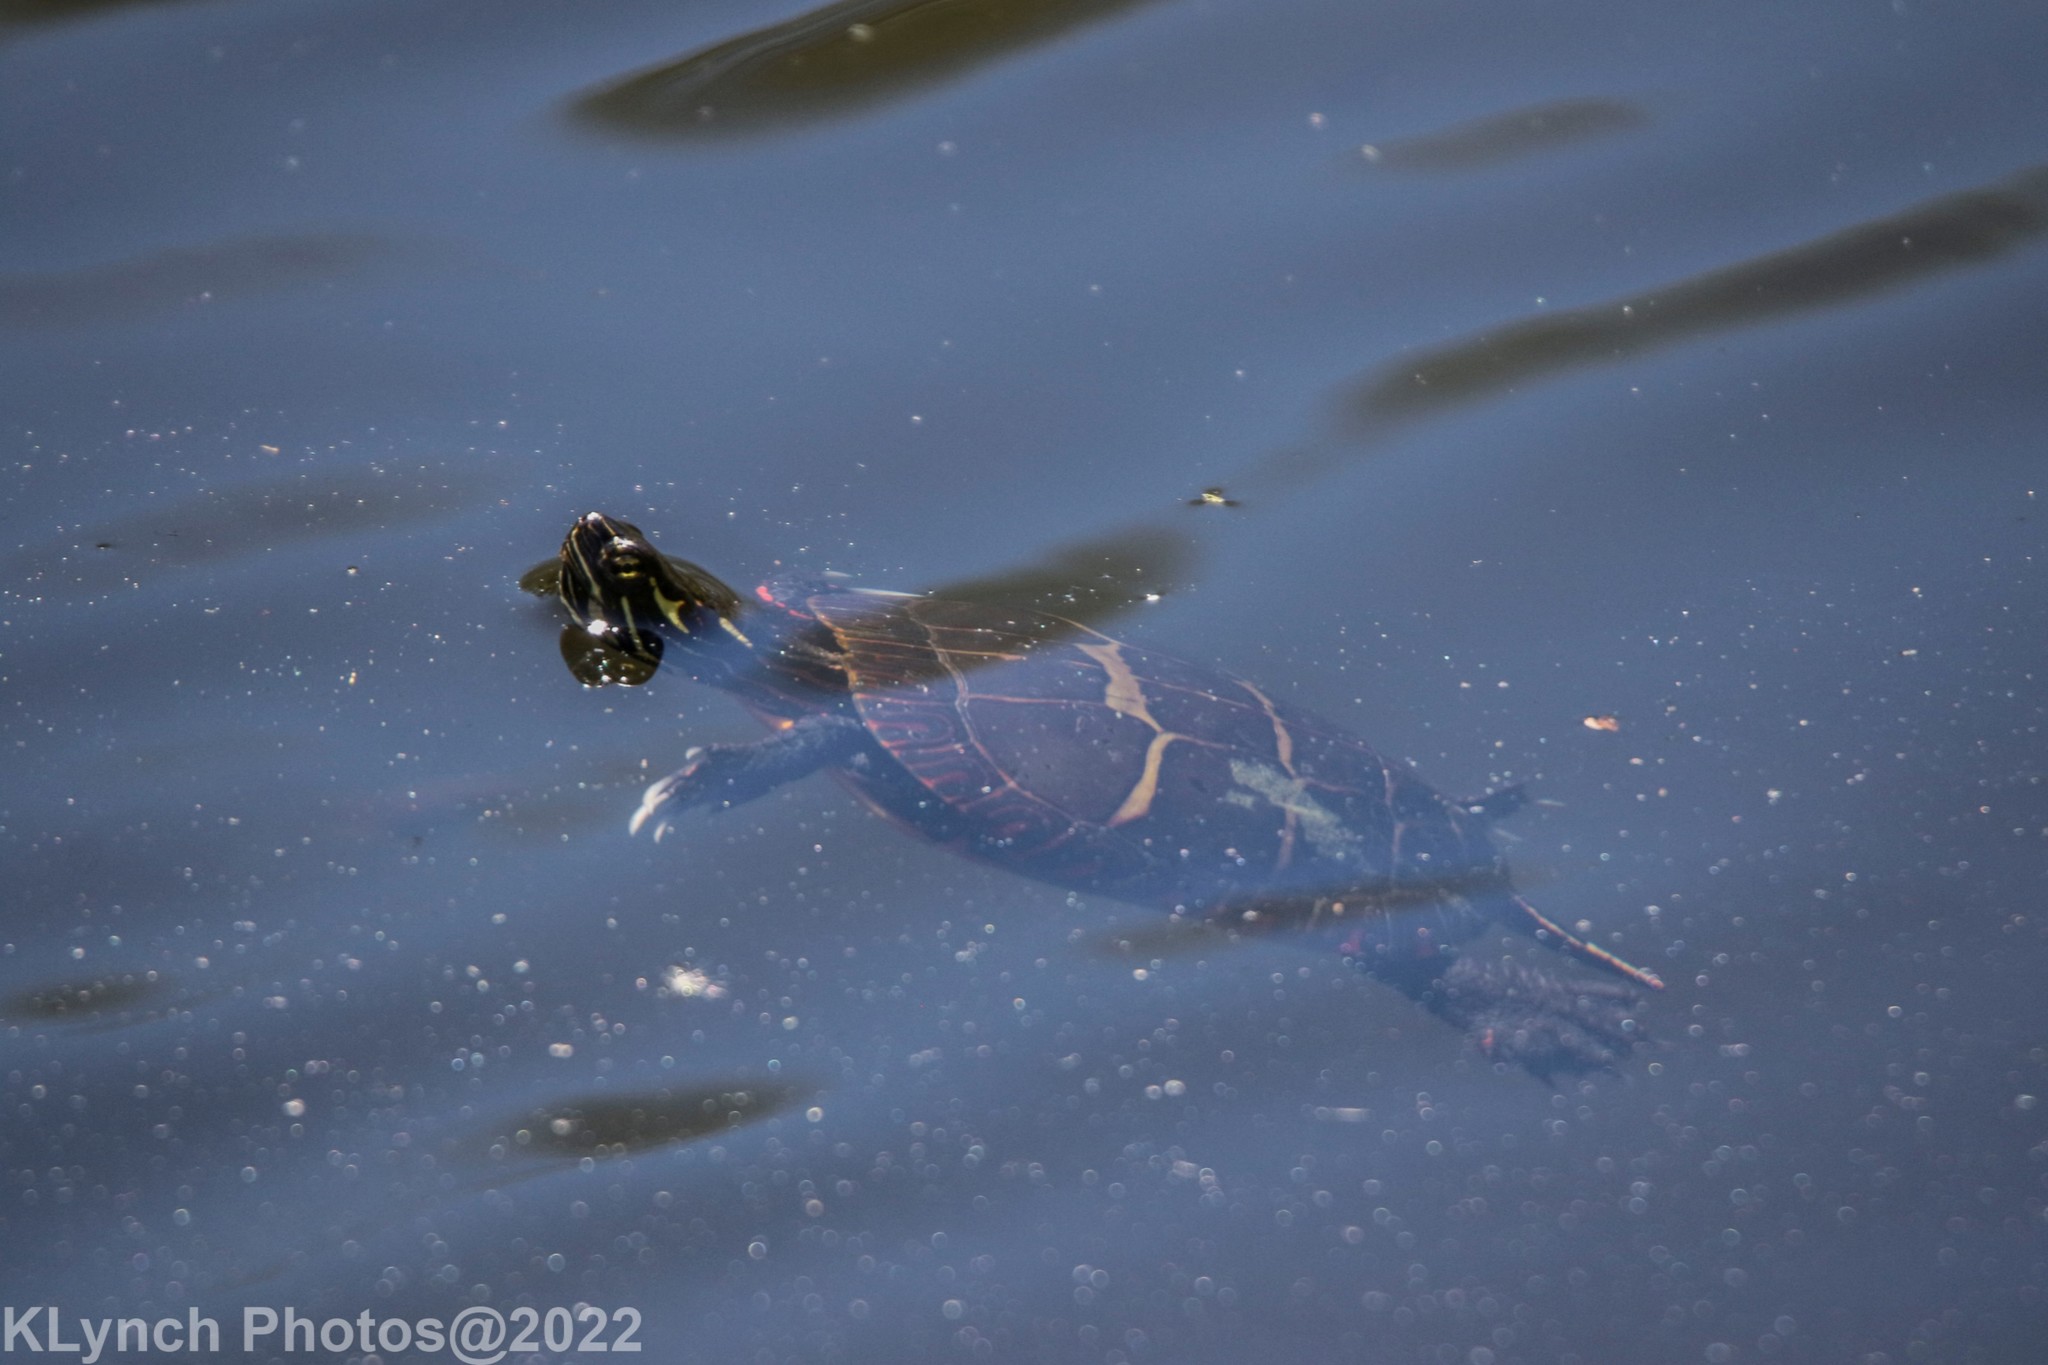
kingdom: Animalia
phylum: Chordata
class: Testudines
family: Emydidae
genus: Chrysemys
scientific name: Chrysemys picta
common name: Painted turtle
